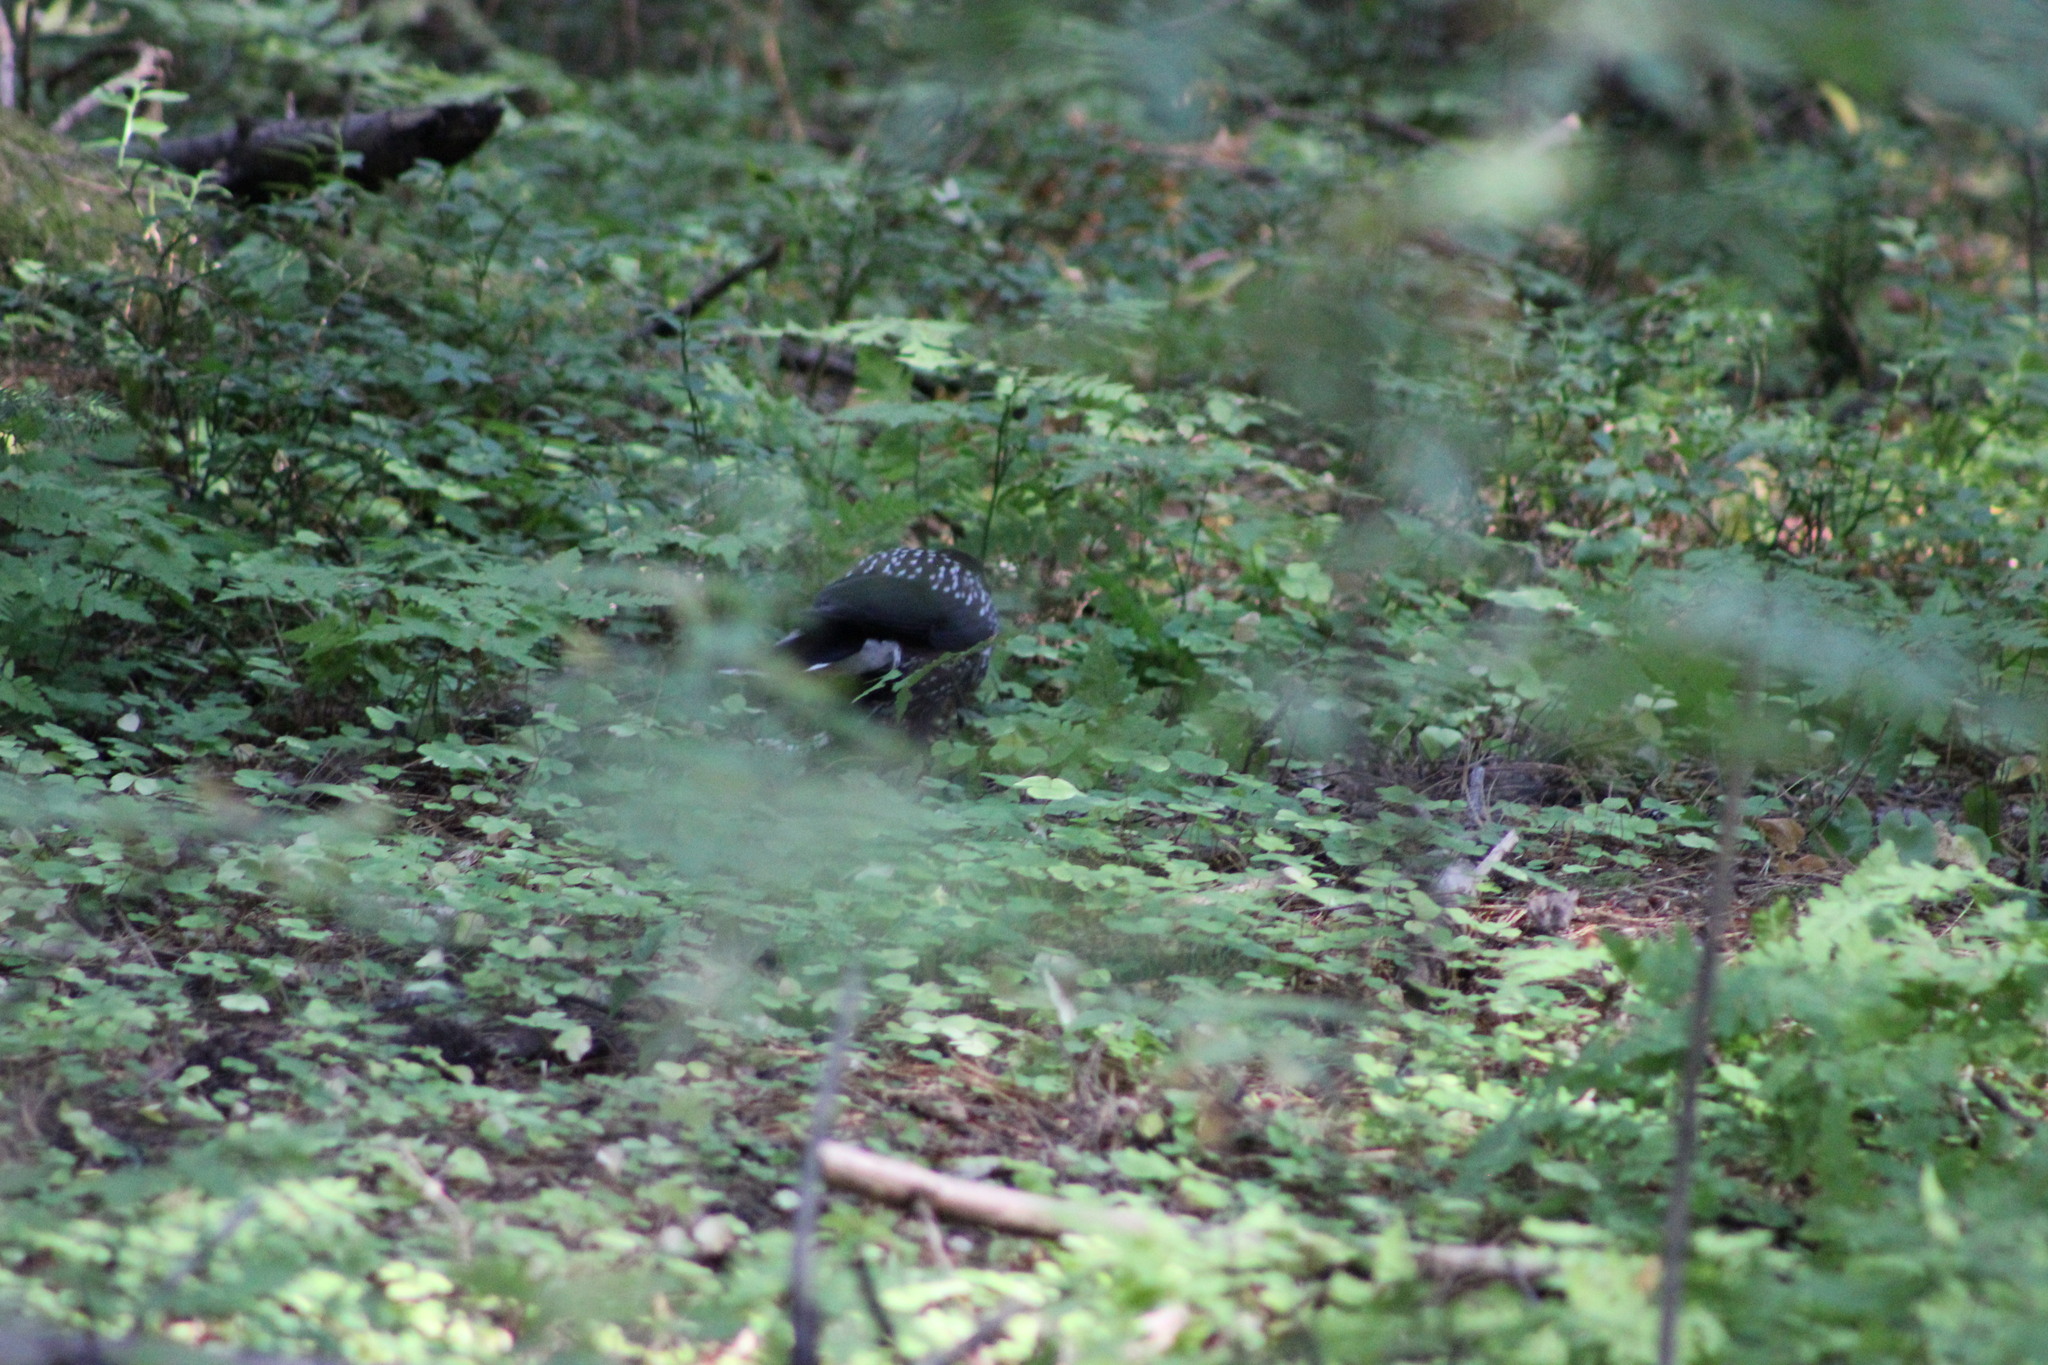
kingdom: Animalia
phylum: Chordata
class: Aves
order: Passeriformes
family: Corvidae
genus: Nucifraga
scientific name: Nucifraga caryocatactes
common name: Spotted nutcracker
